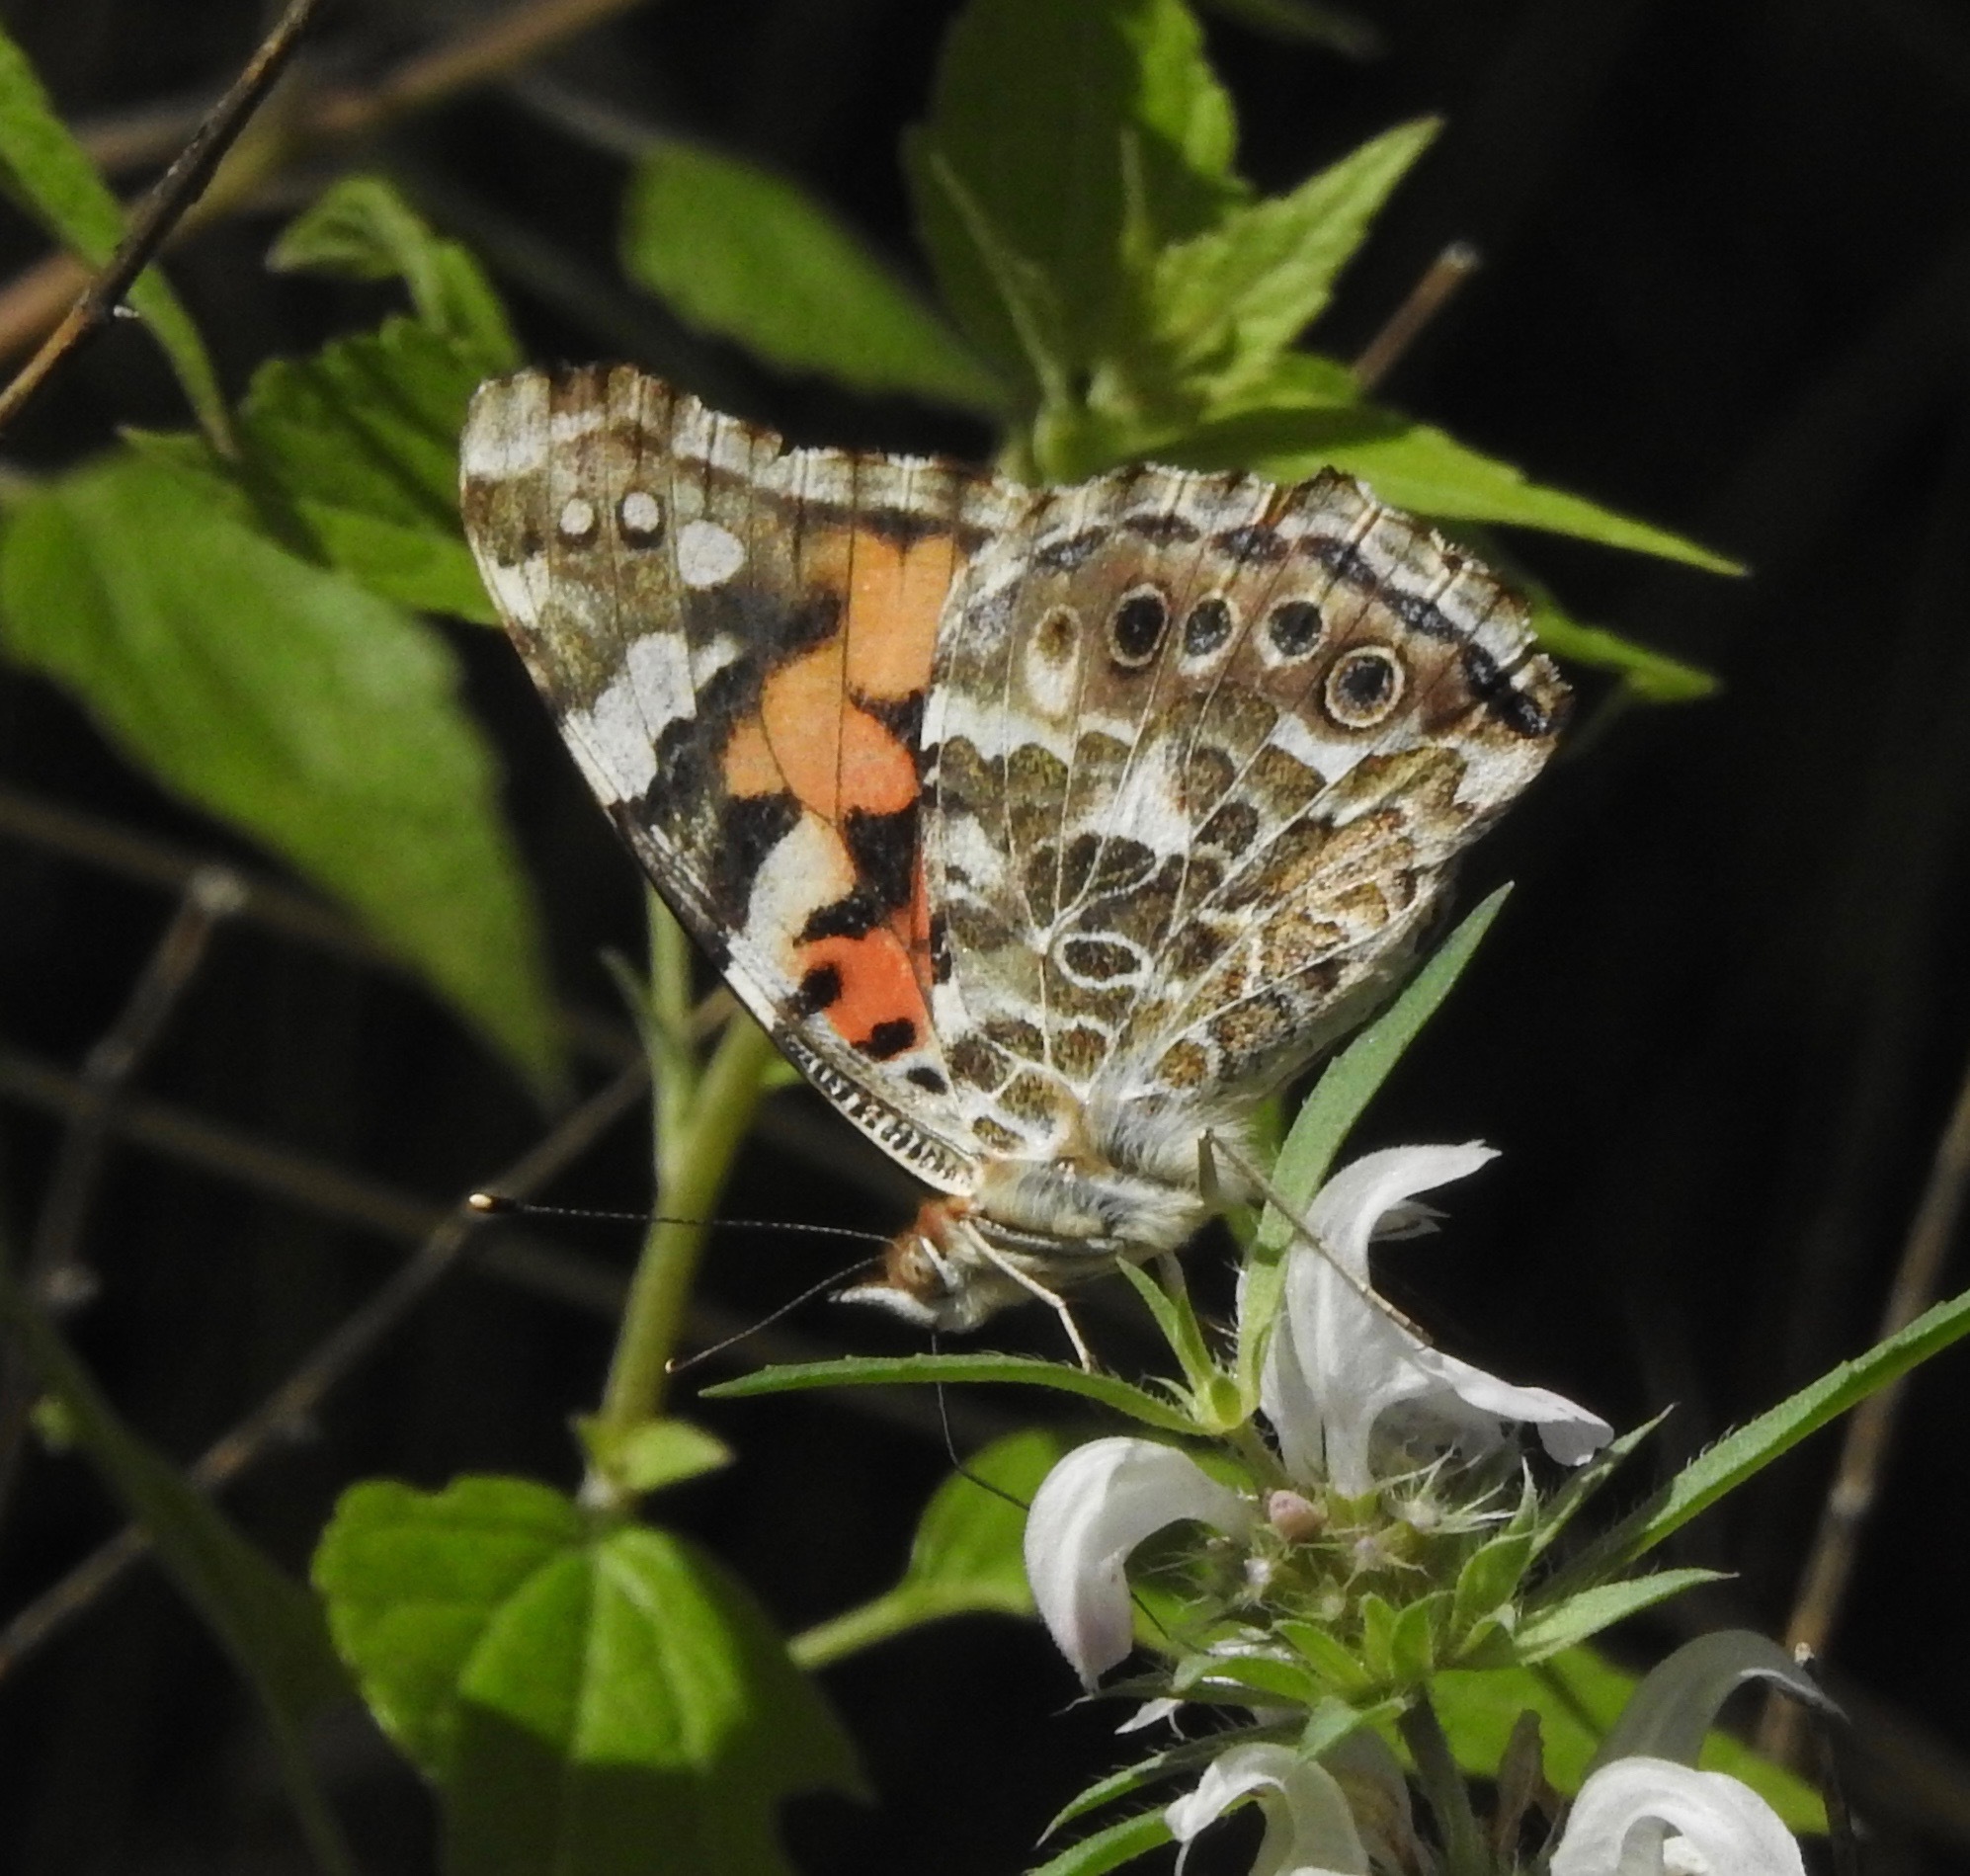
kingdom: Animalia
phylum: Arthropoda
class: Insecta
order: Lepidoptera
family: Nymphalidae
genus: Vanessa
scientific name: Vanessa cardui
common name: Painted lady
